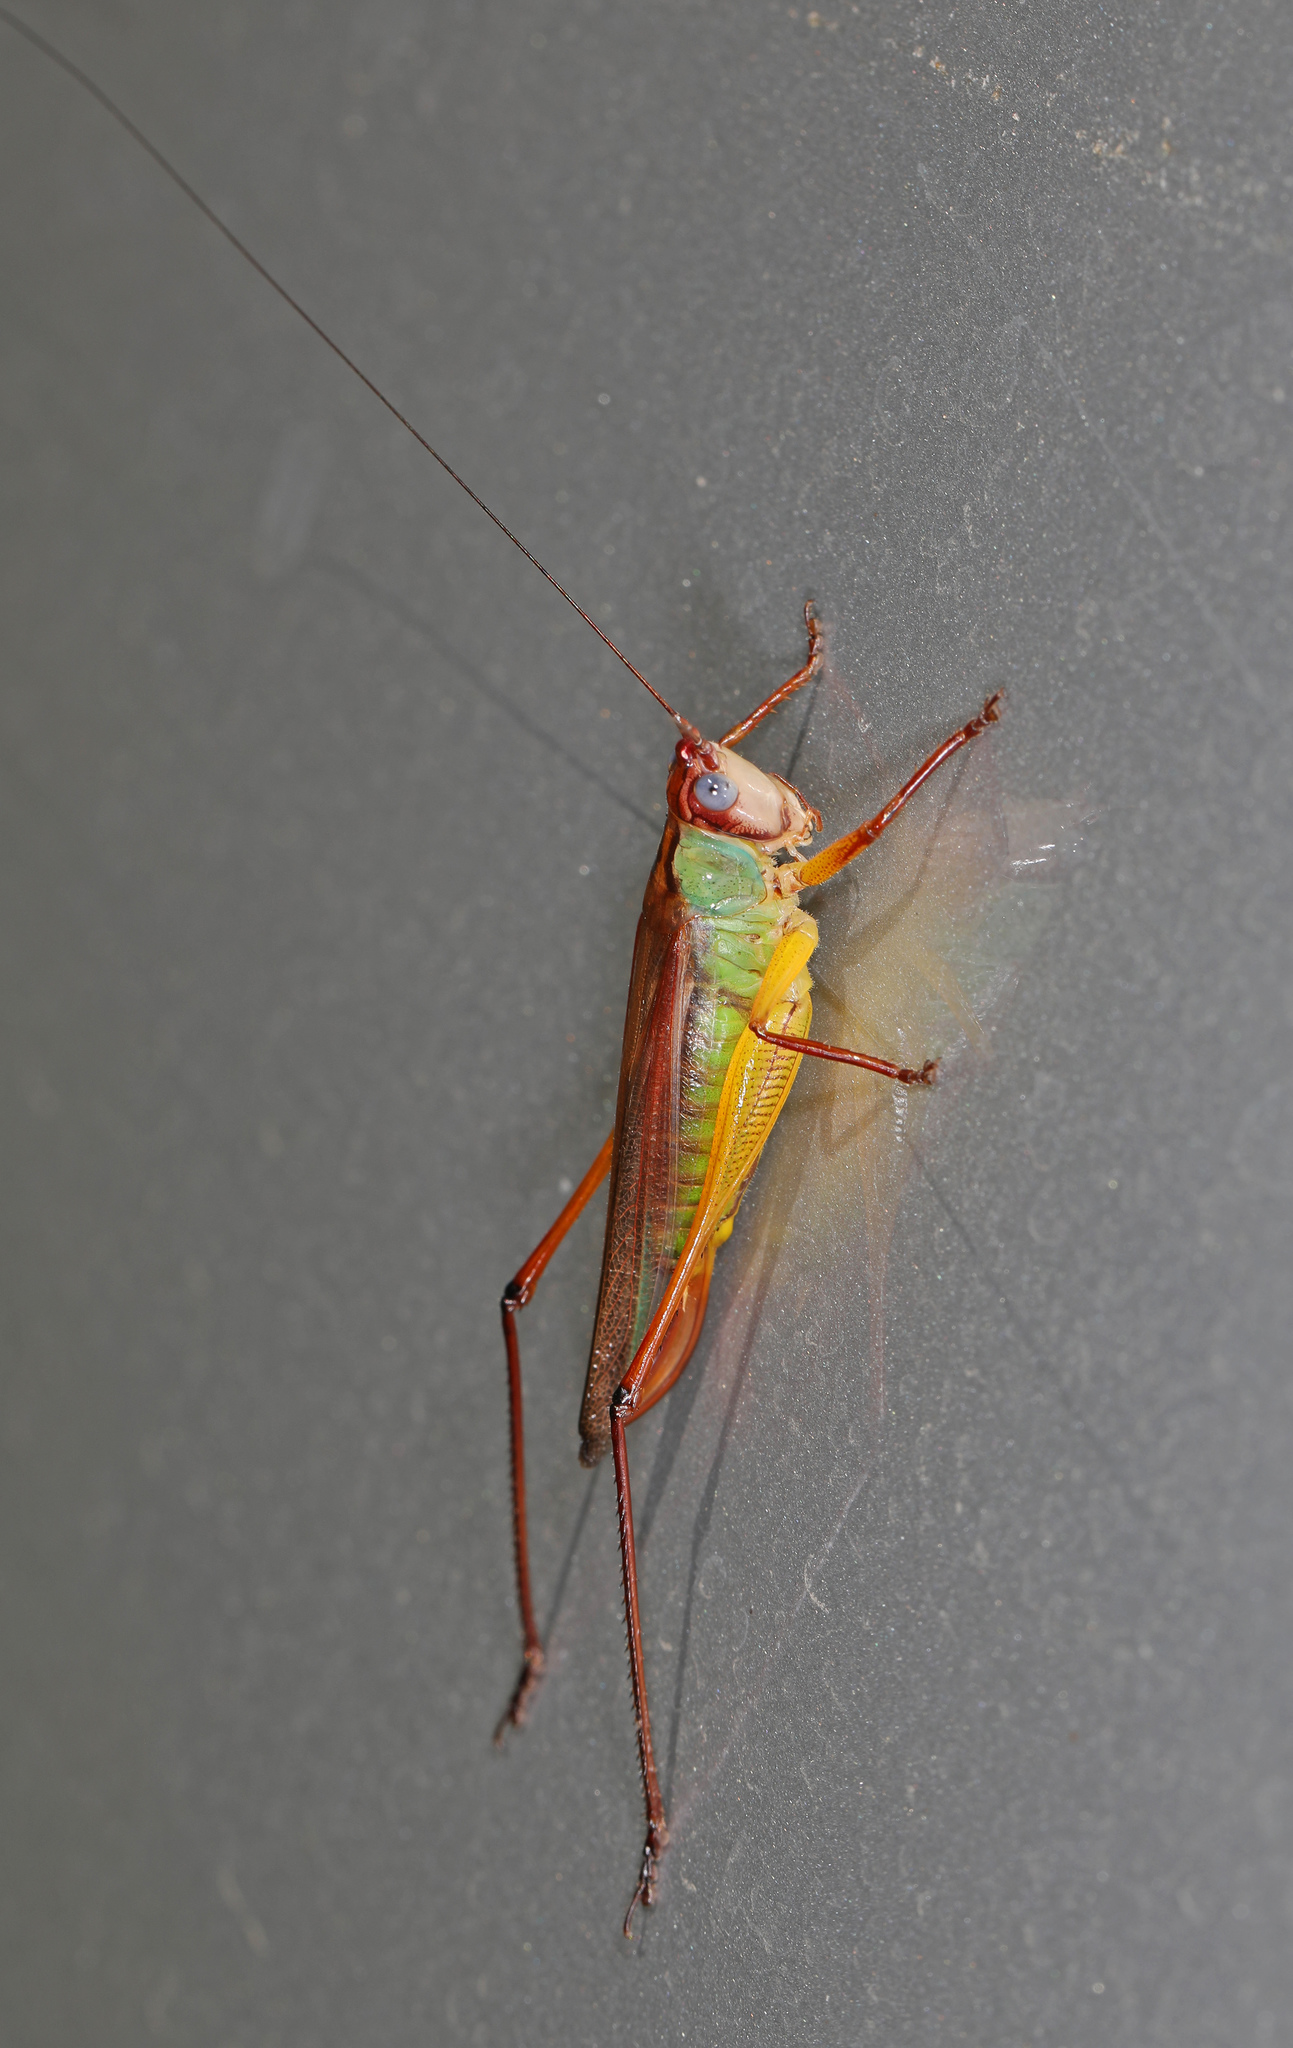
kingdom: Animalia
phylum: Arthropoda
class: Insecta
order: Orthoptera
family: Tettigoniidae
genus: Orchelimum
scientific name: Orchelimum pulchellum
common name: Handsome meadow katydid
